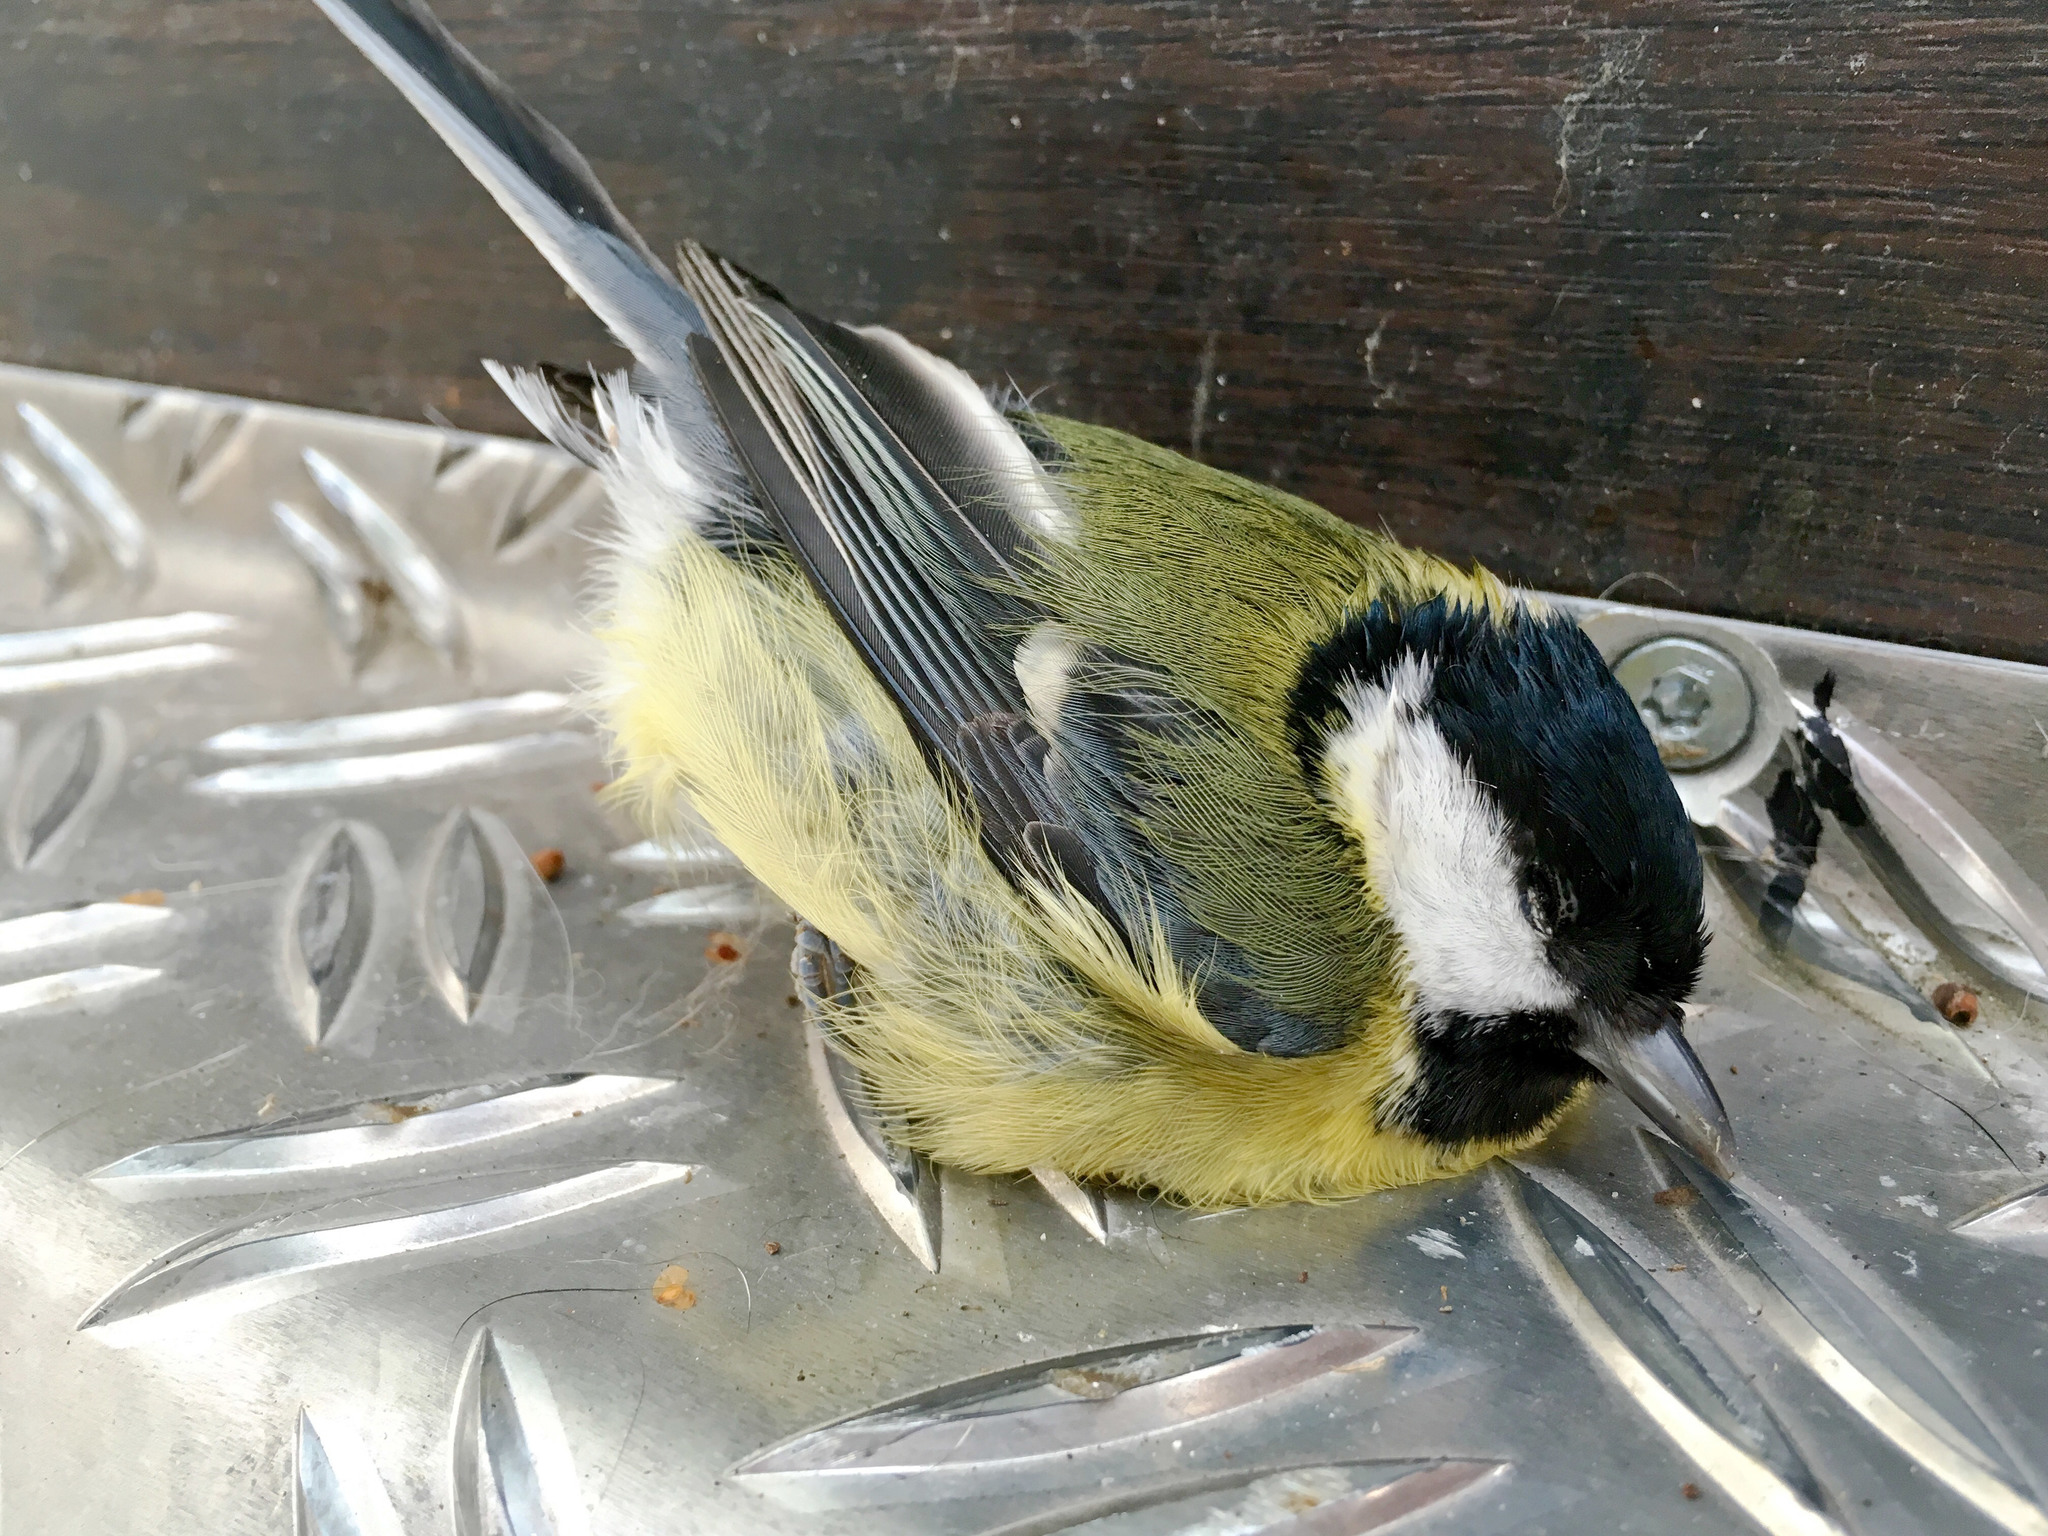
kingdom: Animalia
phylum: Chordata
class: Aves
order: Passeriformes
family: Paridae
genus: Parus
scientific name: Parus major
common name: Great tit
